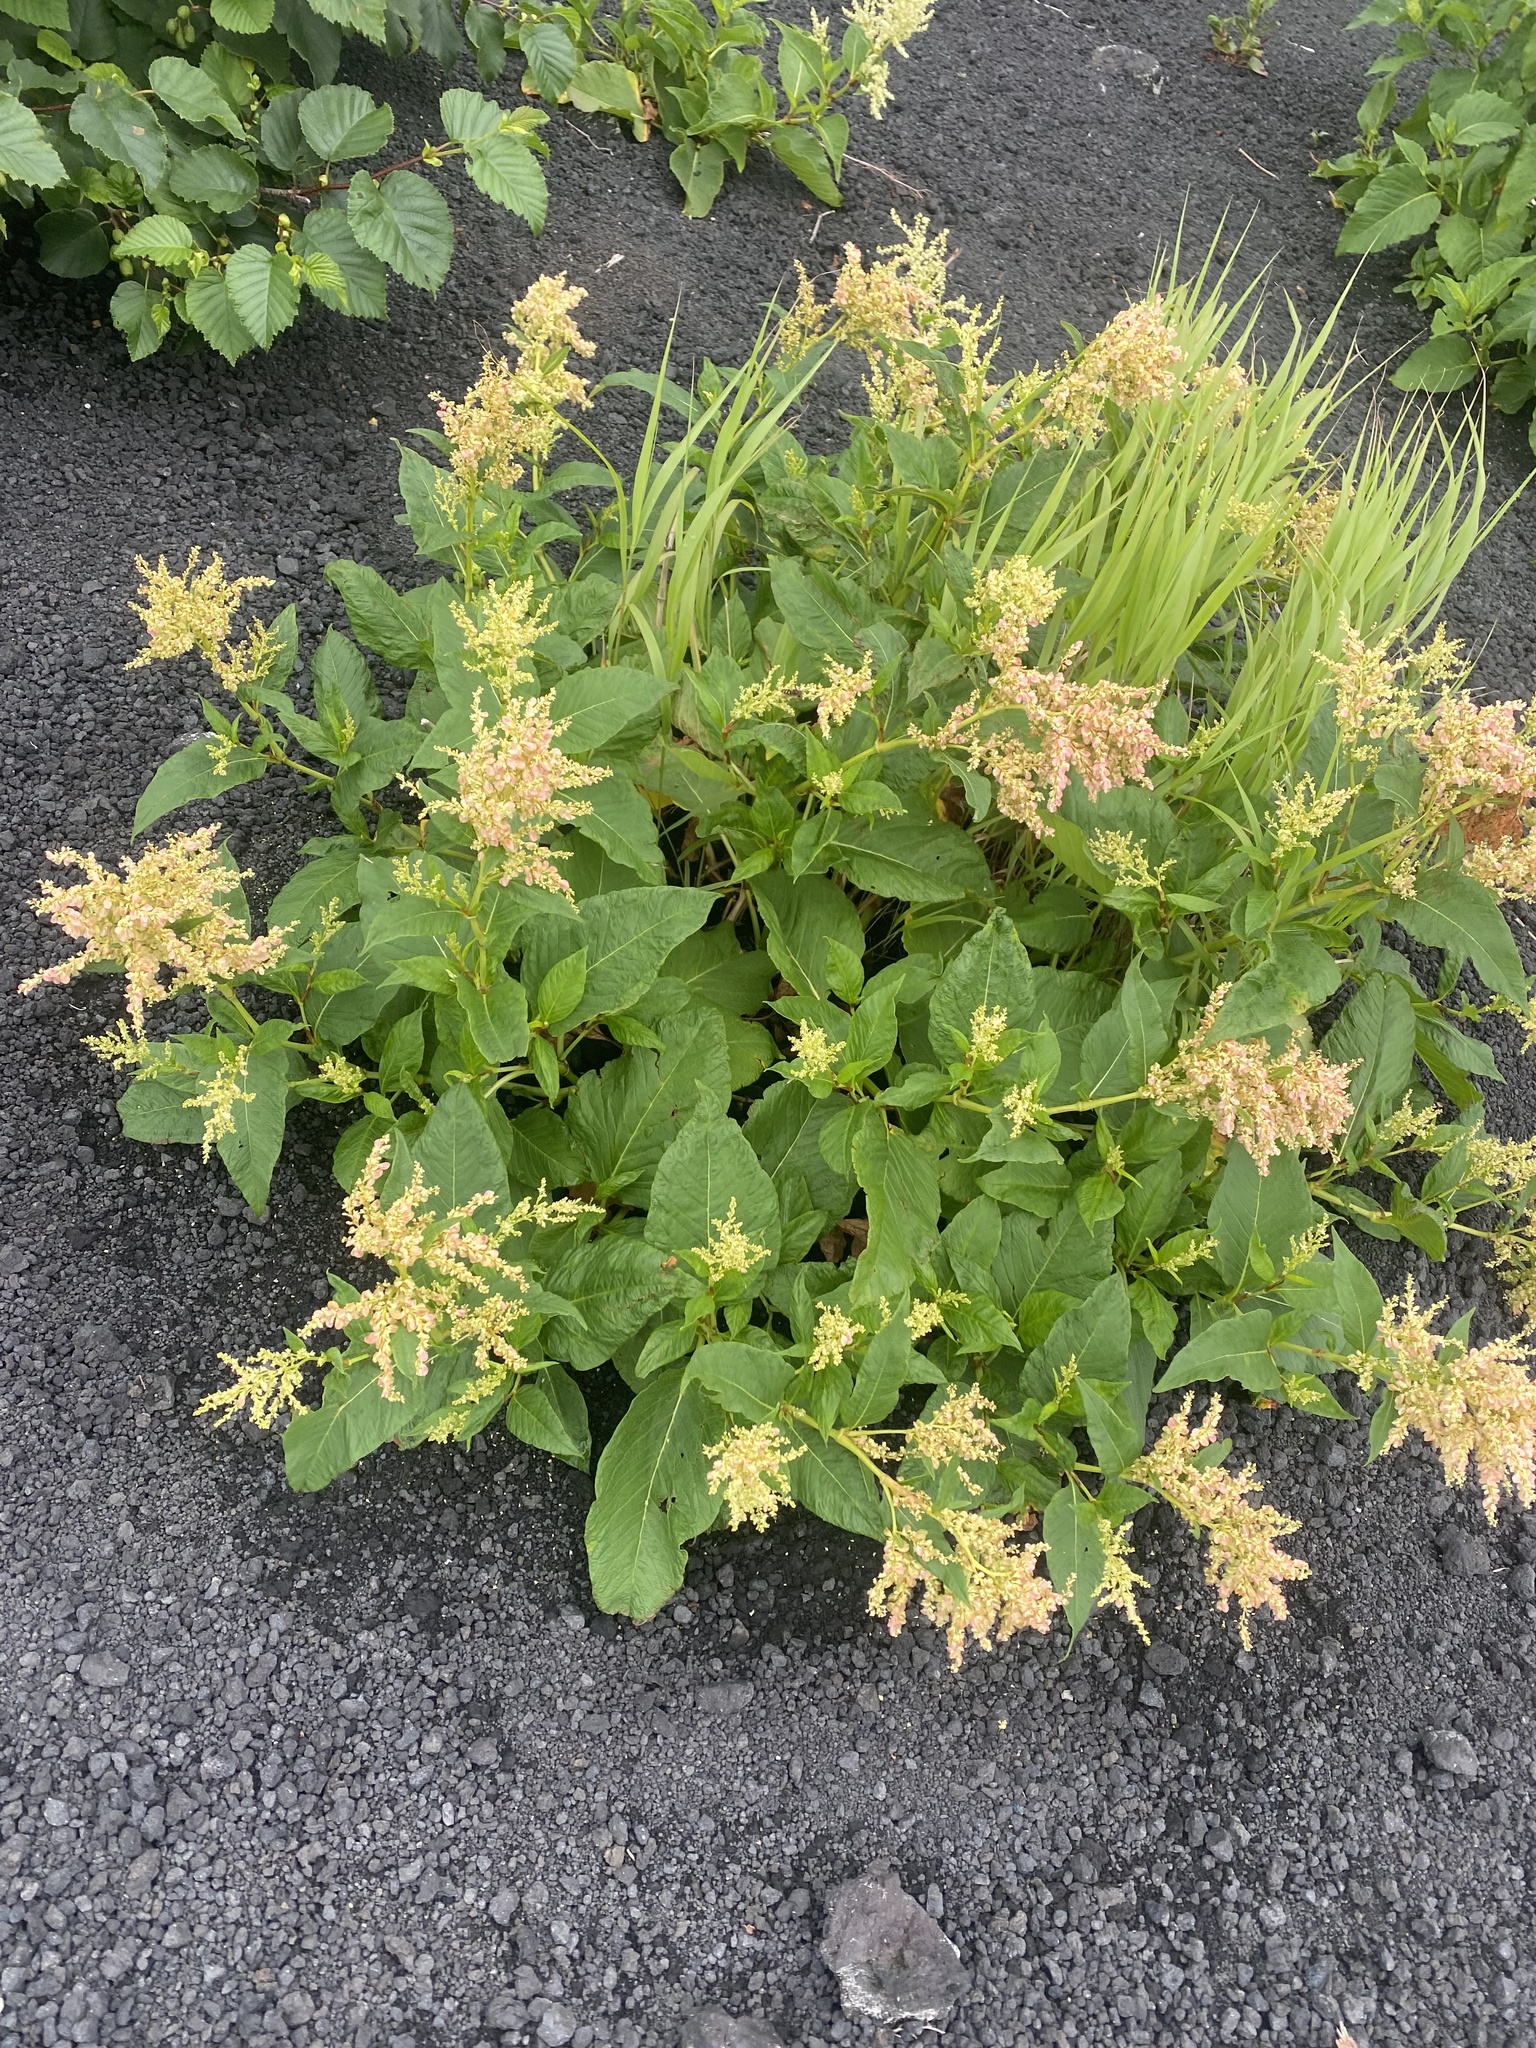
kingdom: Plantae
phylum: Tracheophyta
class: Magnoliopsida
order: Caryophyllales
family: Polygonaceae
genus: Koenigia
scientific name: Koenigia weyrichii
